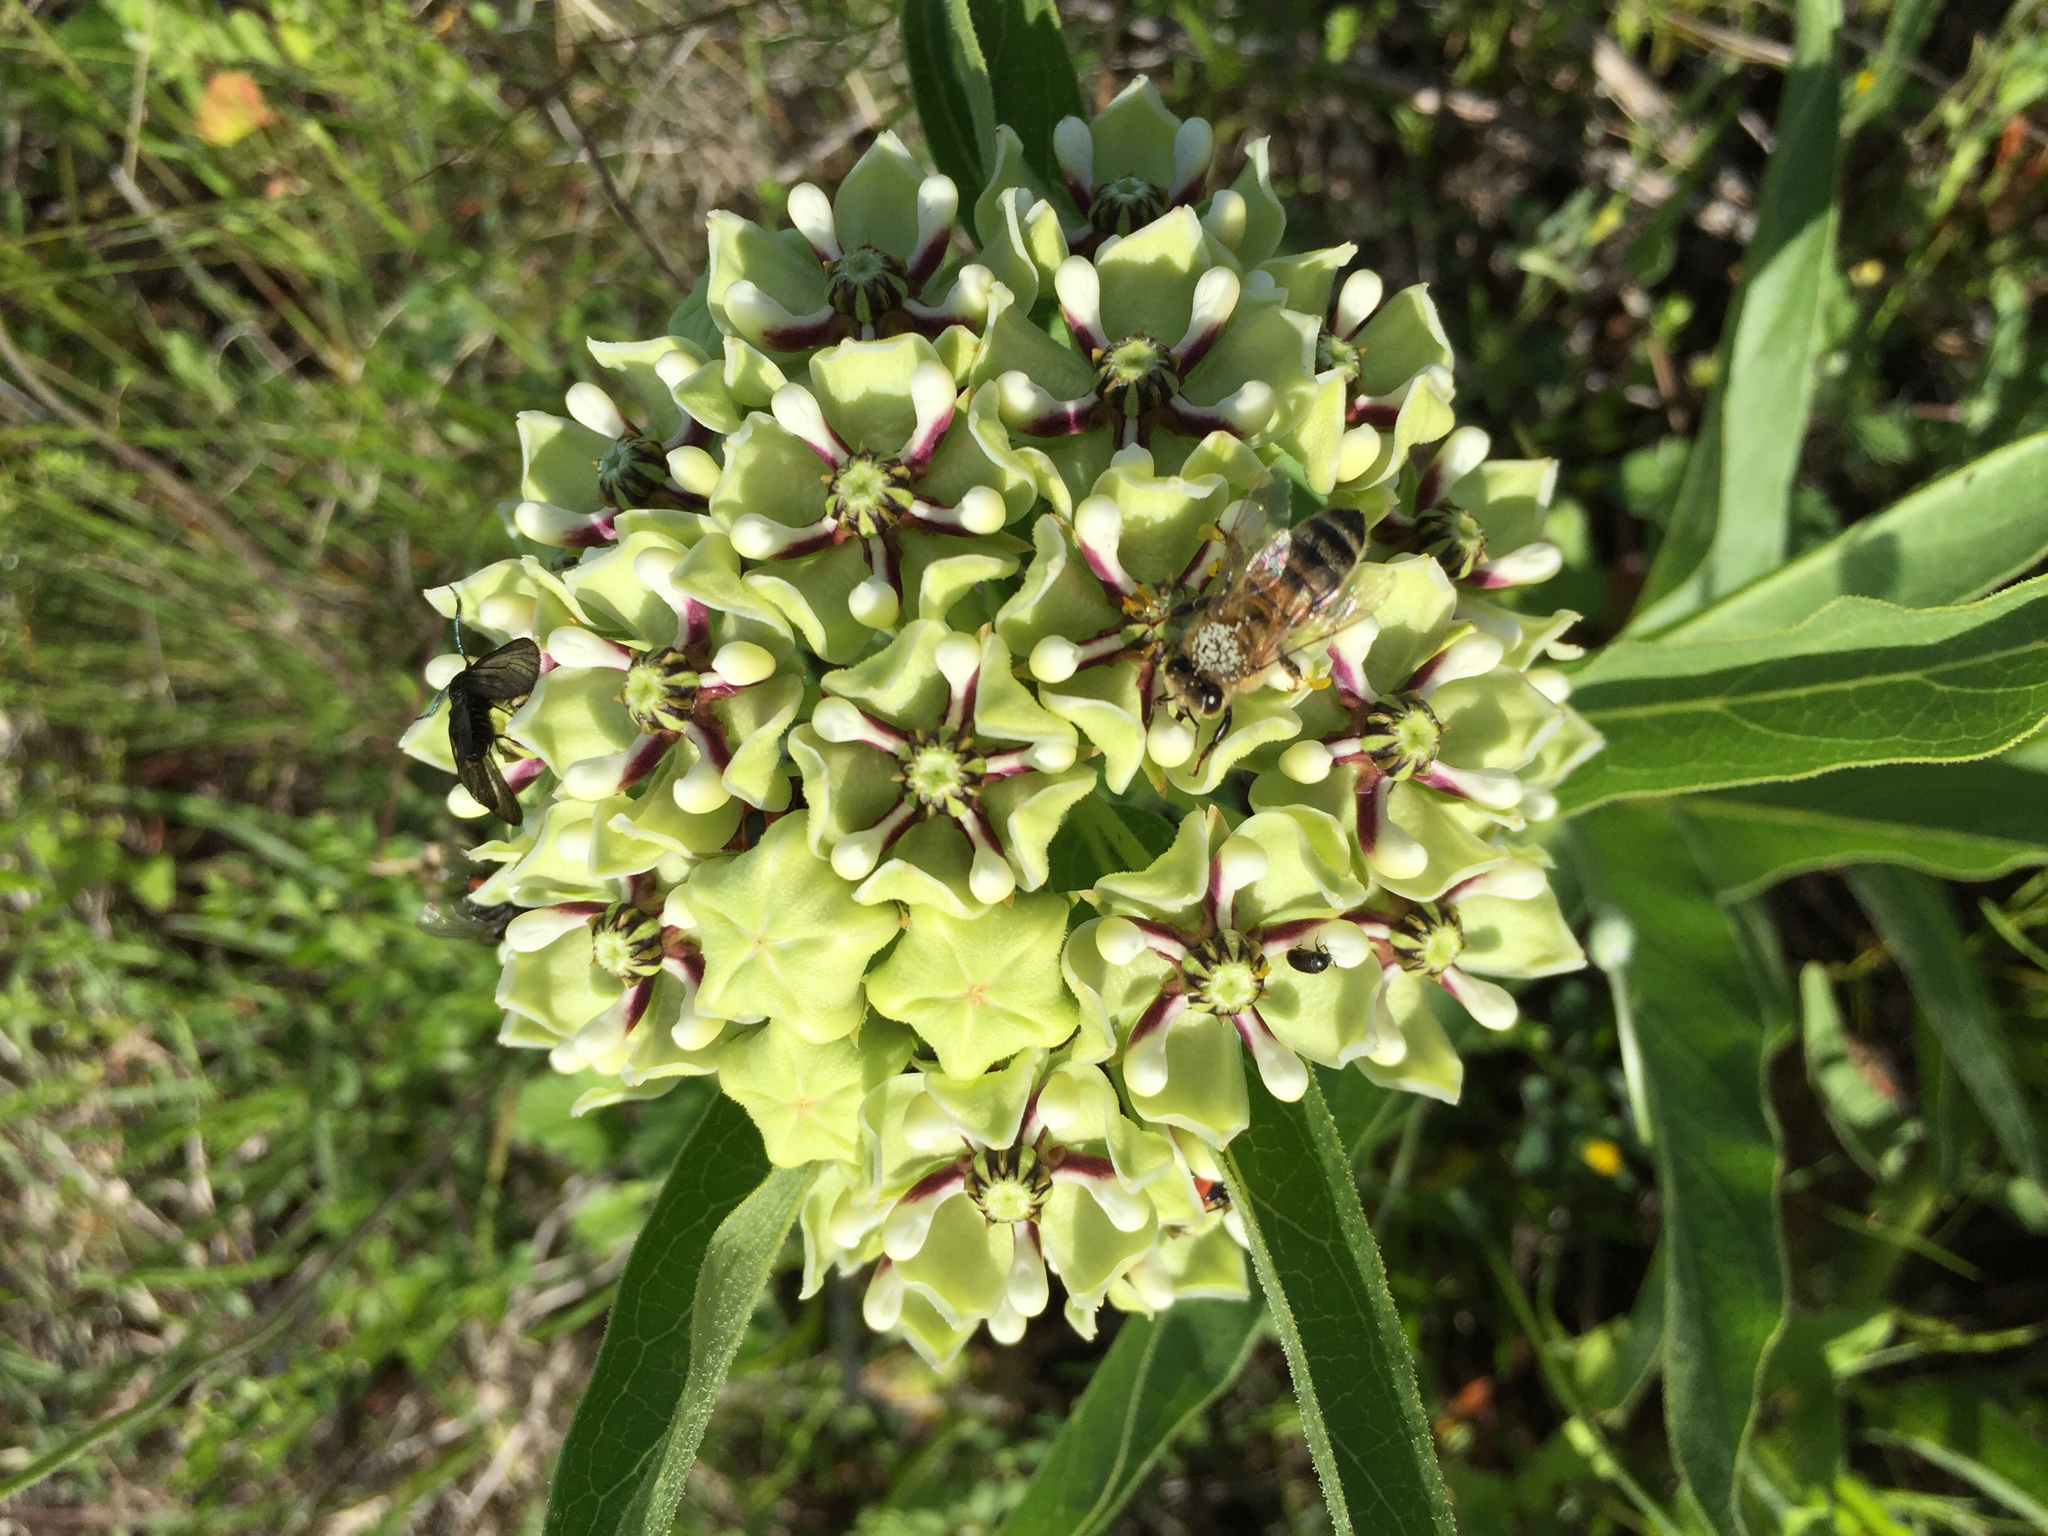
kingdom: Animalia
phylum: Arthropoda
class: Insecta
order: Hymenoptera
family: Apidae
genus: Apis
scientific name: Apis mellifera
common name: Honey bee
